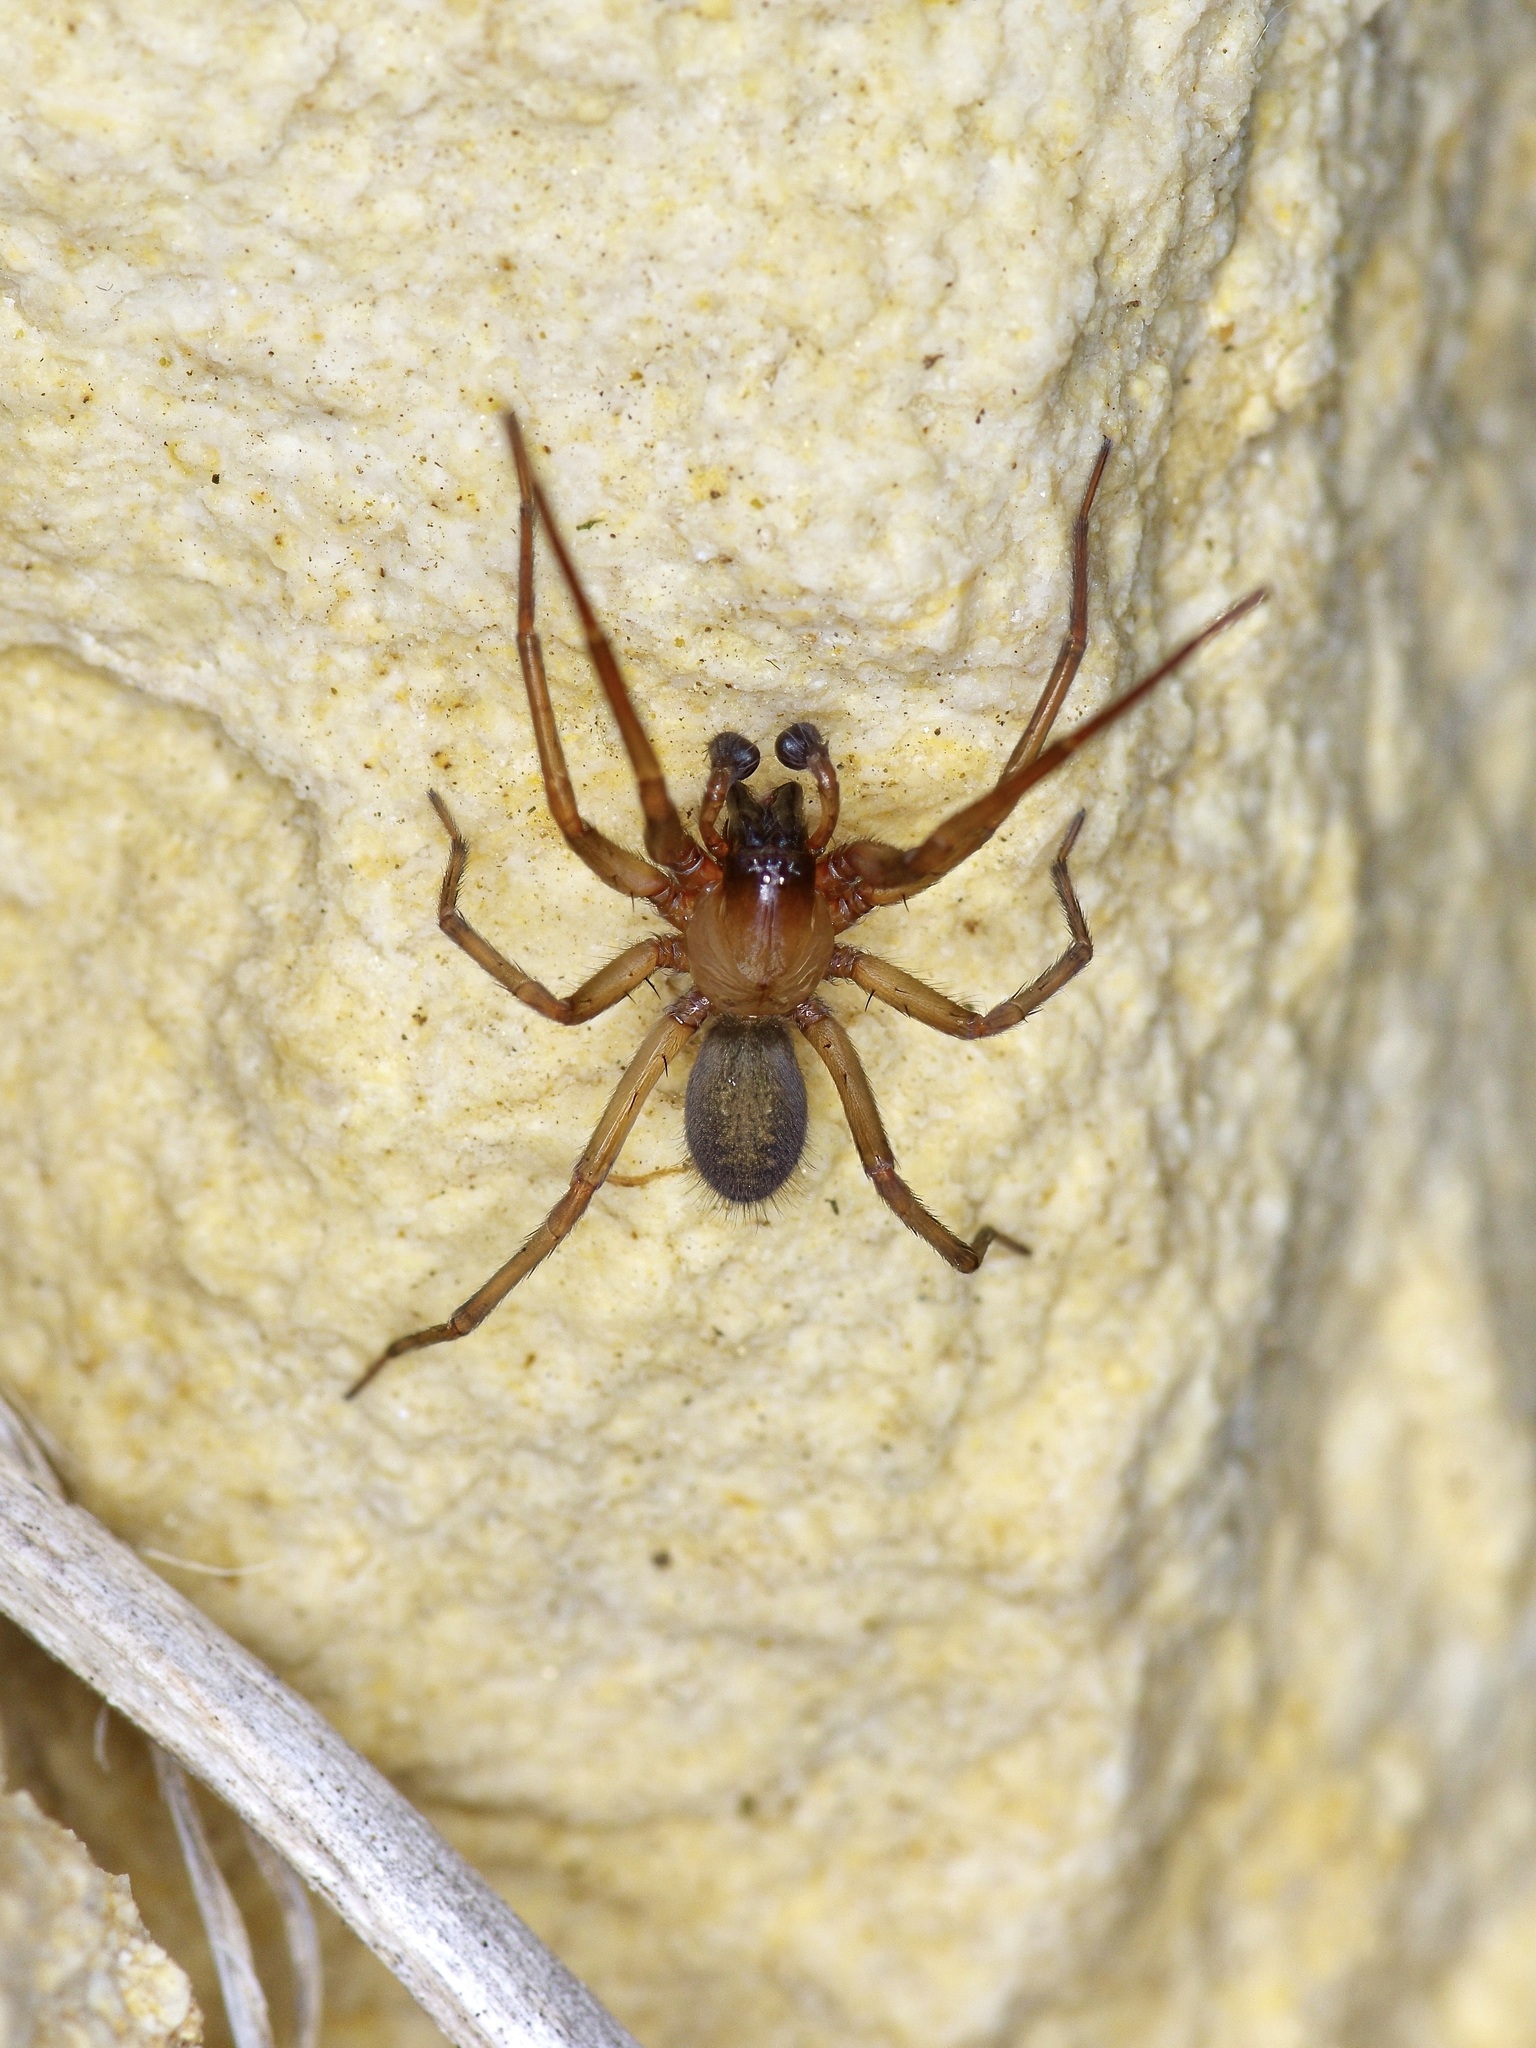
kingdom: Animalia
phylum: Arthropoda
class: Arachnida
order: Araneae
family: Desidae
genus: Metaltella
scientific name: Metaltella simoni
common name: Cribellate spider
